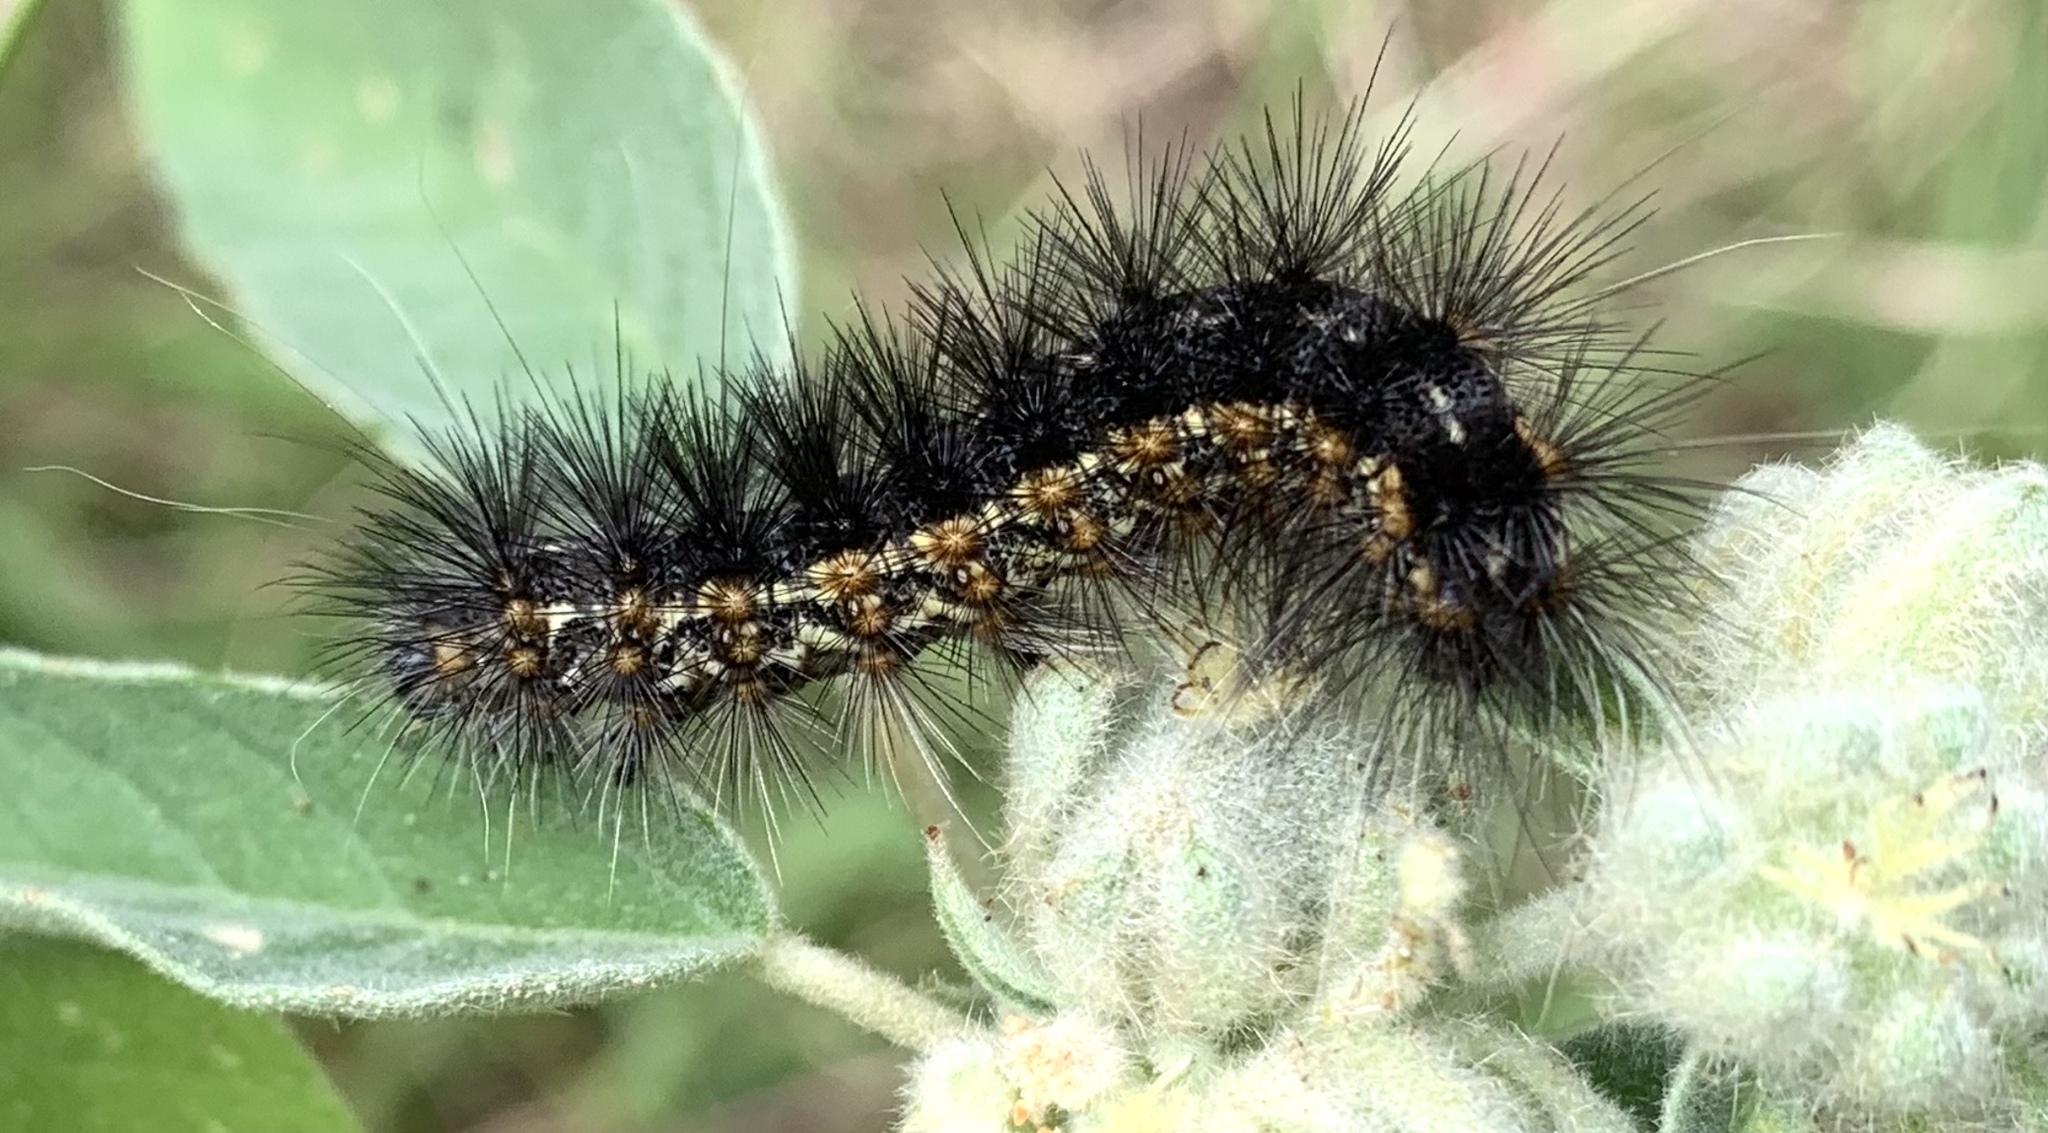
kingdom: Animalia
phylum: Arthropoda
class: Insecta
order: Lepidoptera
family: Erebidae
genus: Estigmene
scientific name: Estigmene acrea
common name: Salt marsh moth
